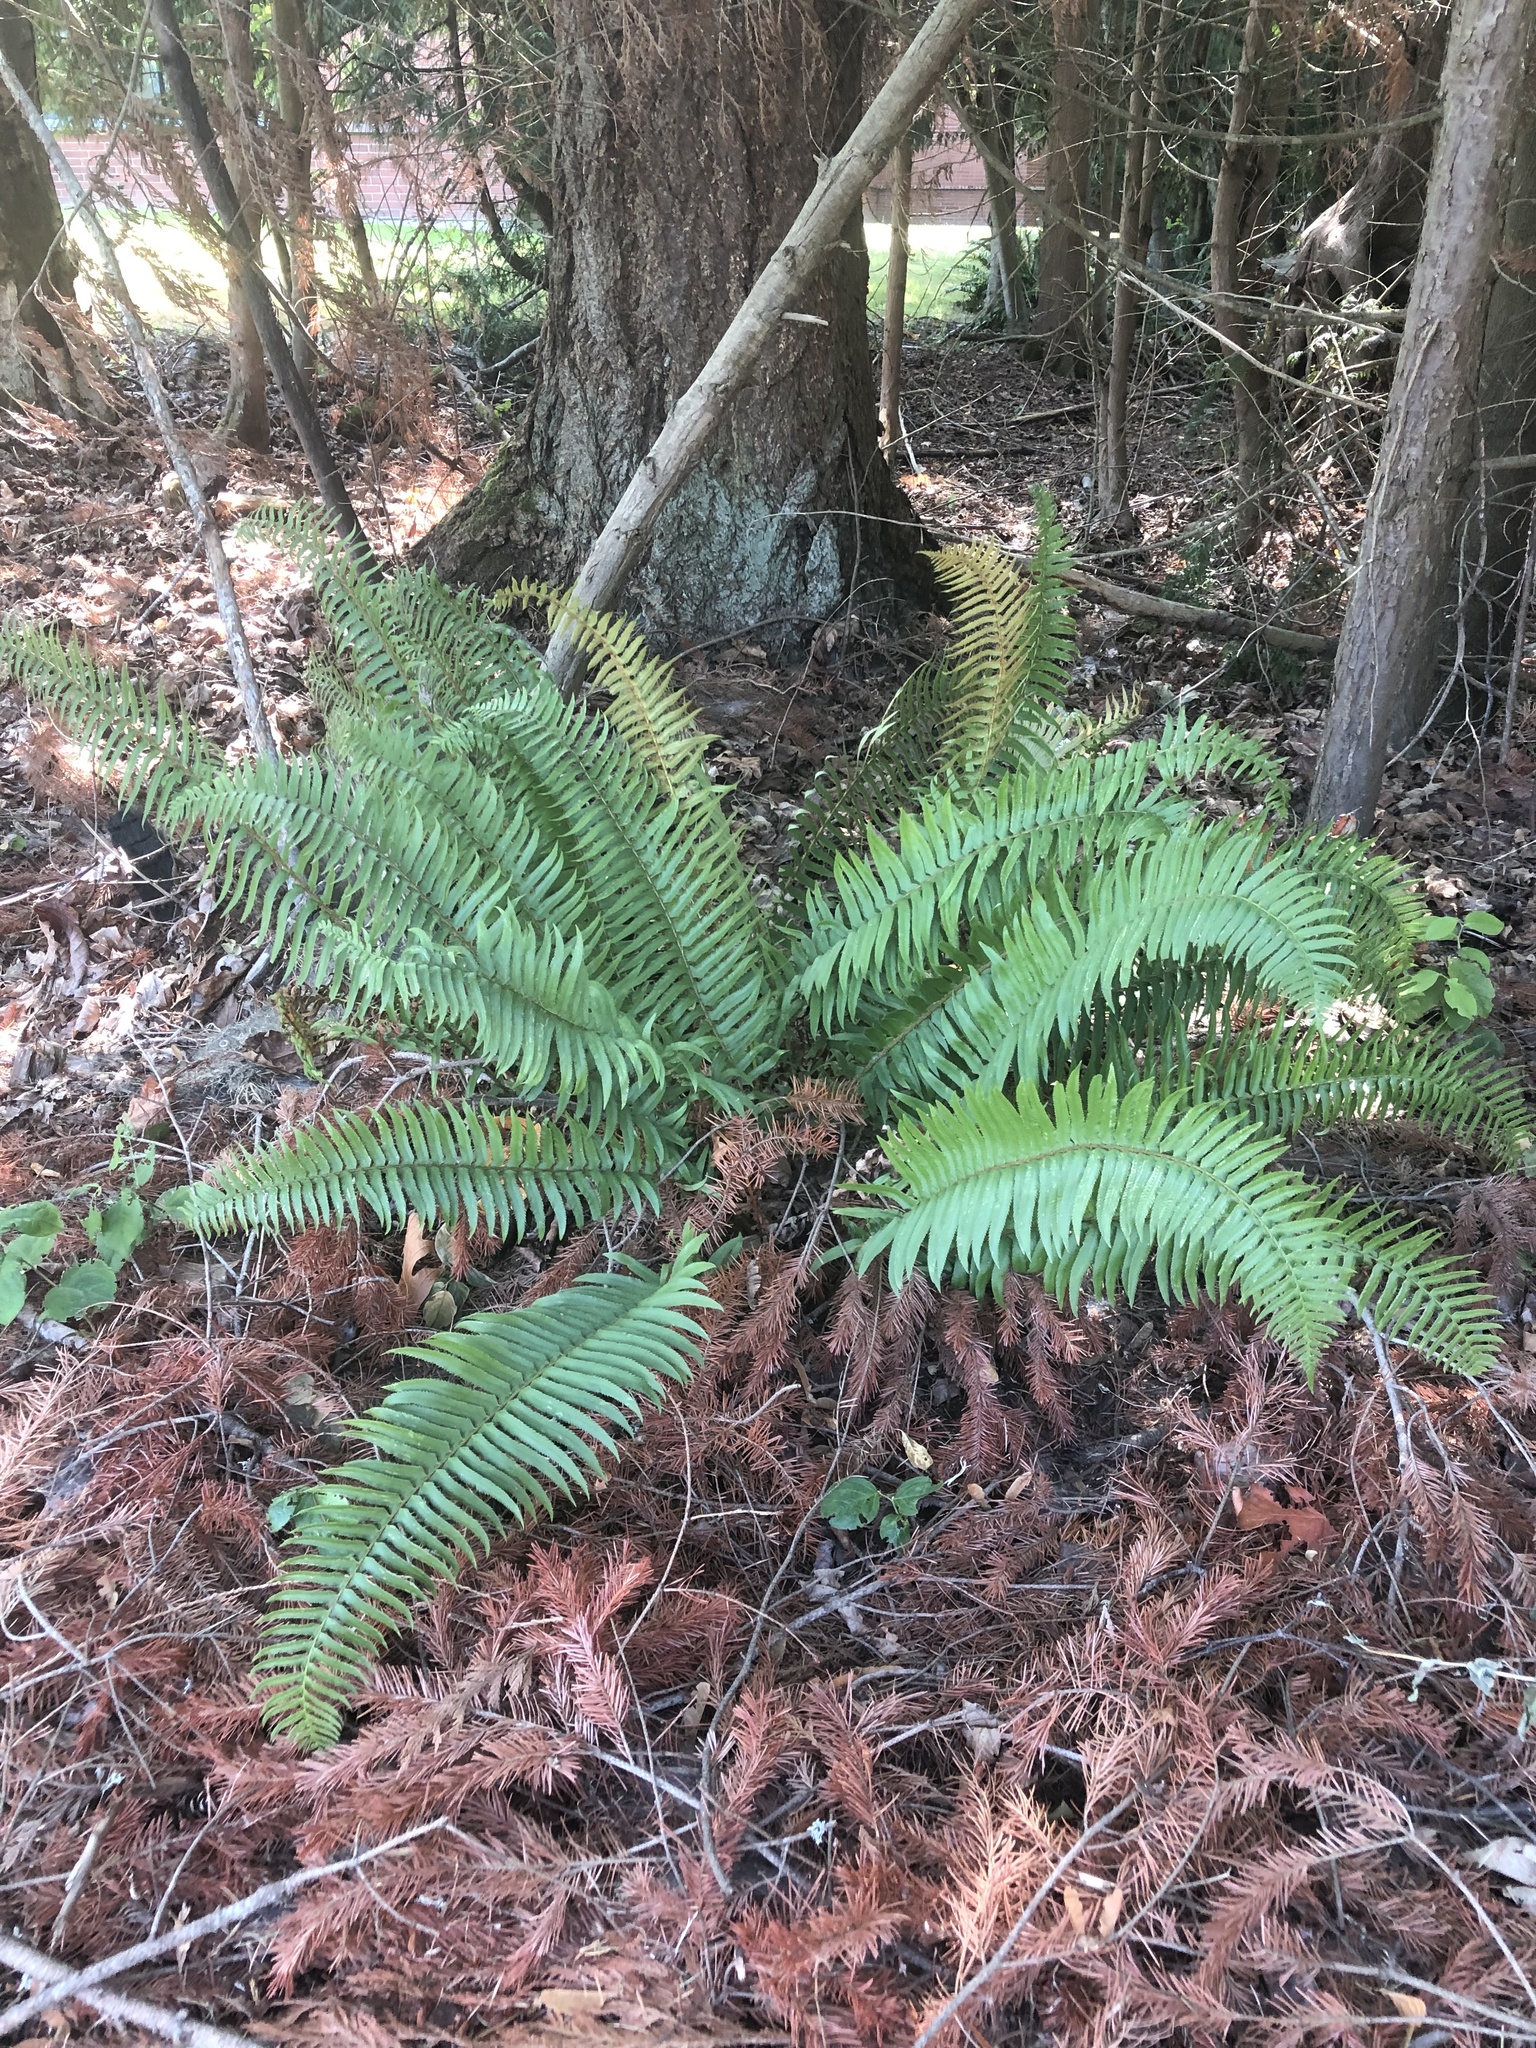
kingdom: Plantae
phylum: Tracheophyta
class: Polypodiopsida
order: Polypodiales
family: Dryopteridaceae
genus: Polystichum
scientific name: Polystichum munitum
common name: Western sword-fern
